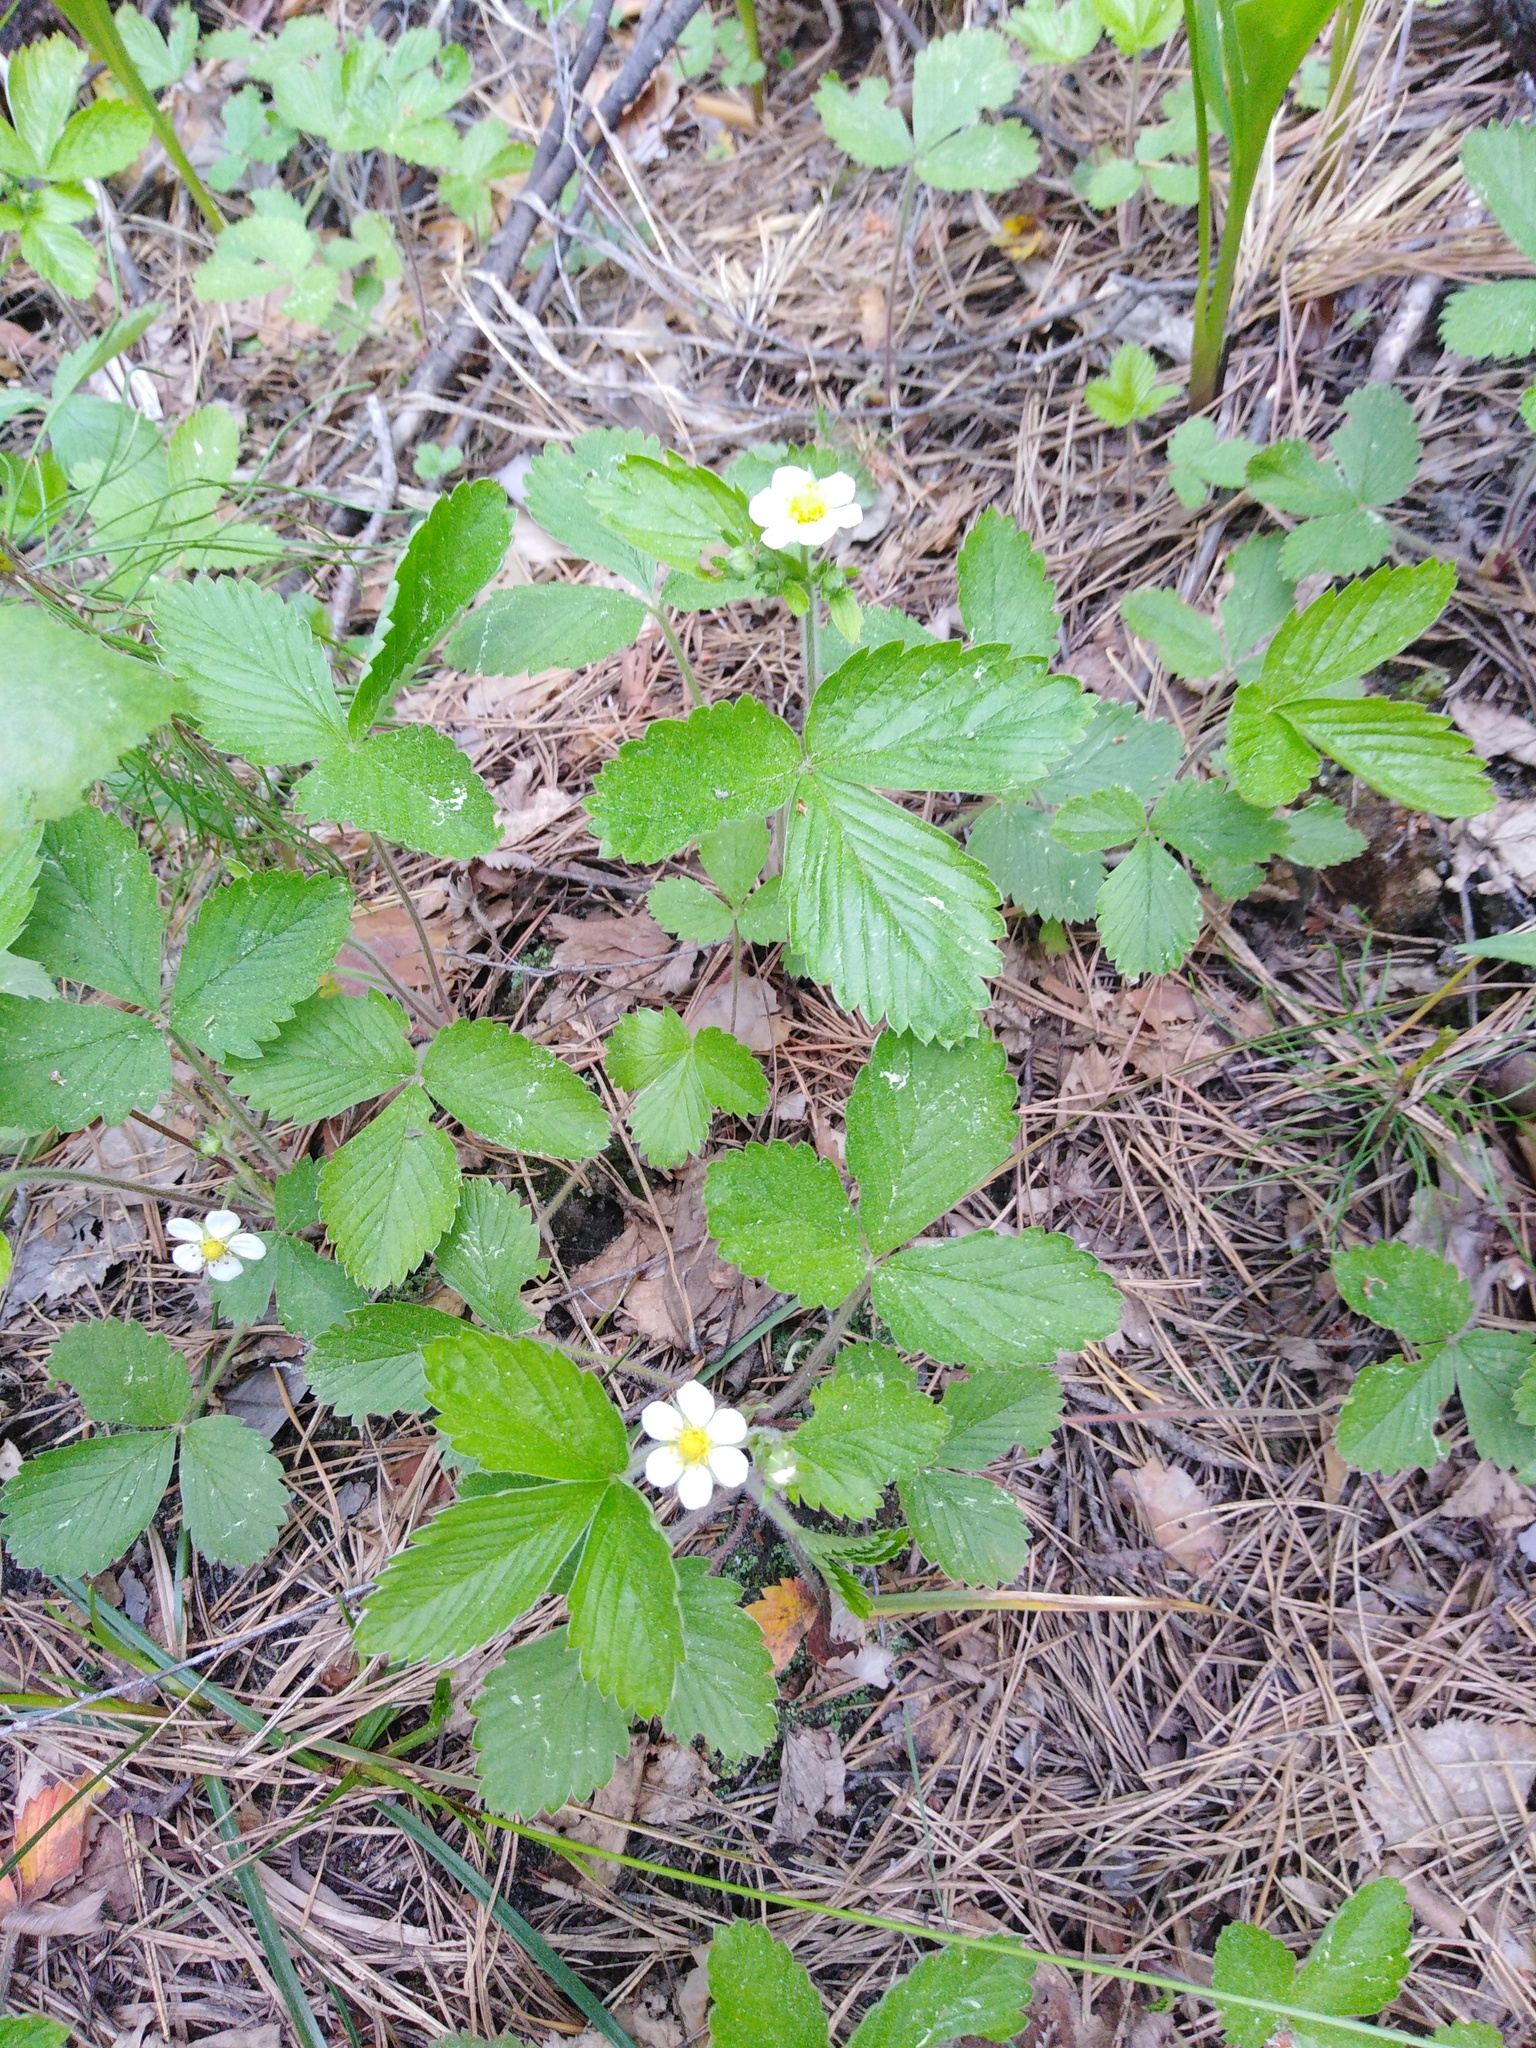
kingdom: Plantae
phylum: Tracheophyta
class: Magnoliopsida
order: Rosales
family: Rosaceae
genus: Fragaria
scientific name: Fragaria vesca
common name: Wild strawberry
